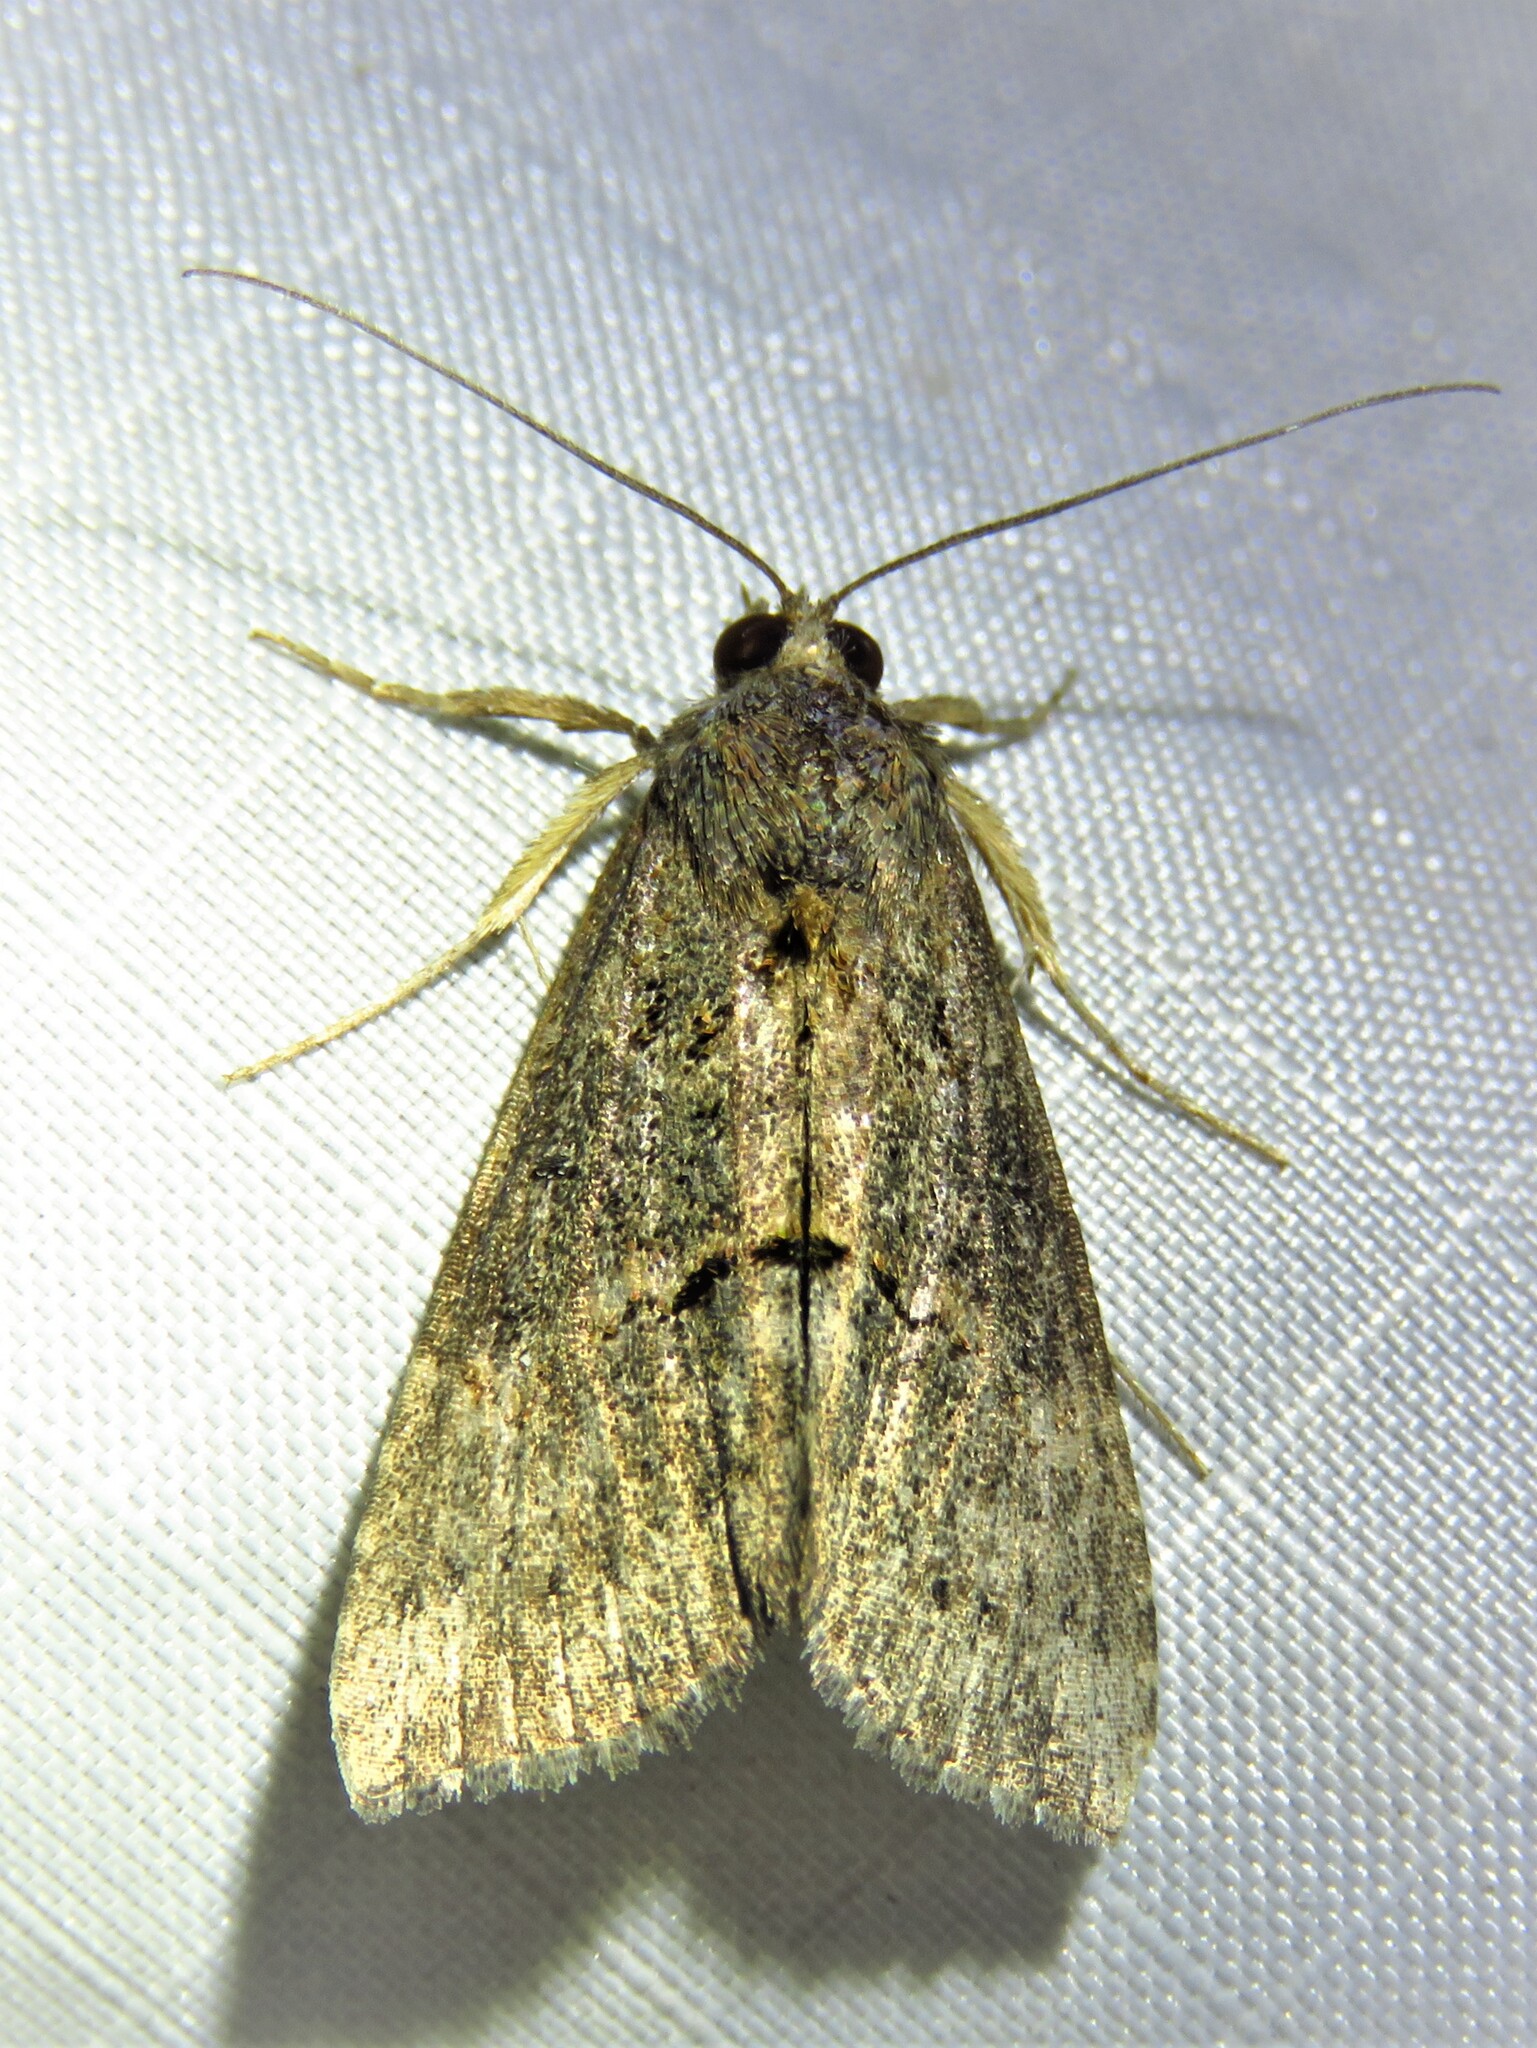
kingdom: Animalia
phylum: Arthropoda
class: Insecta
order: Lepidoptera
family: Erebidae
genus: Hypena
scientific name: Hypena scabra
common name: Green cloverworm
